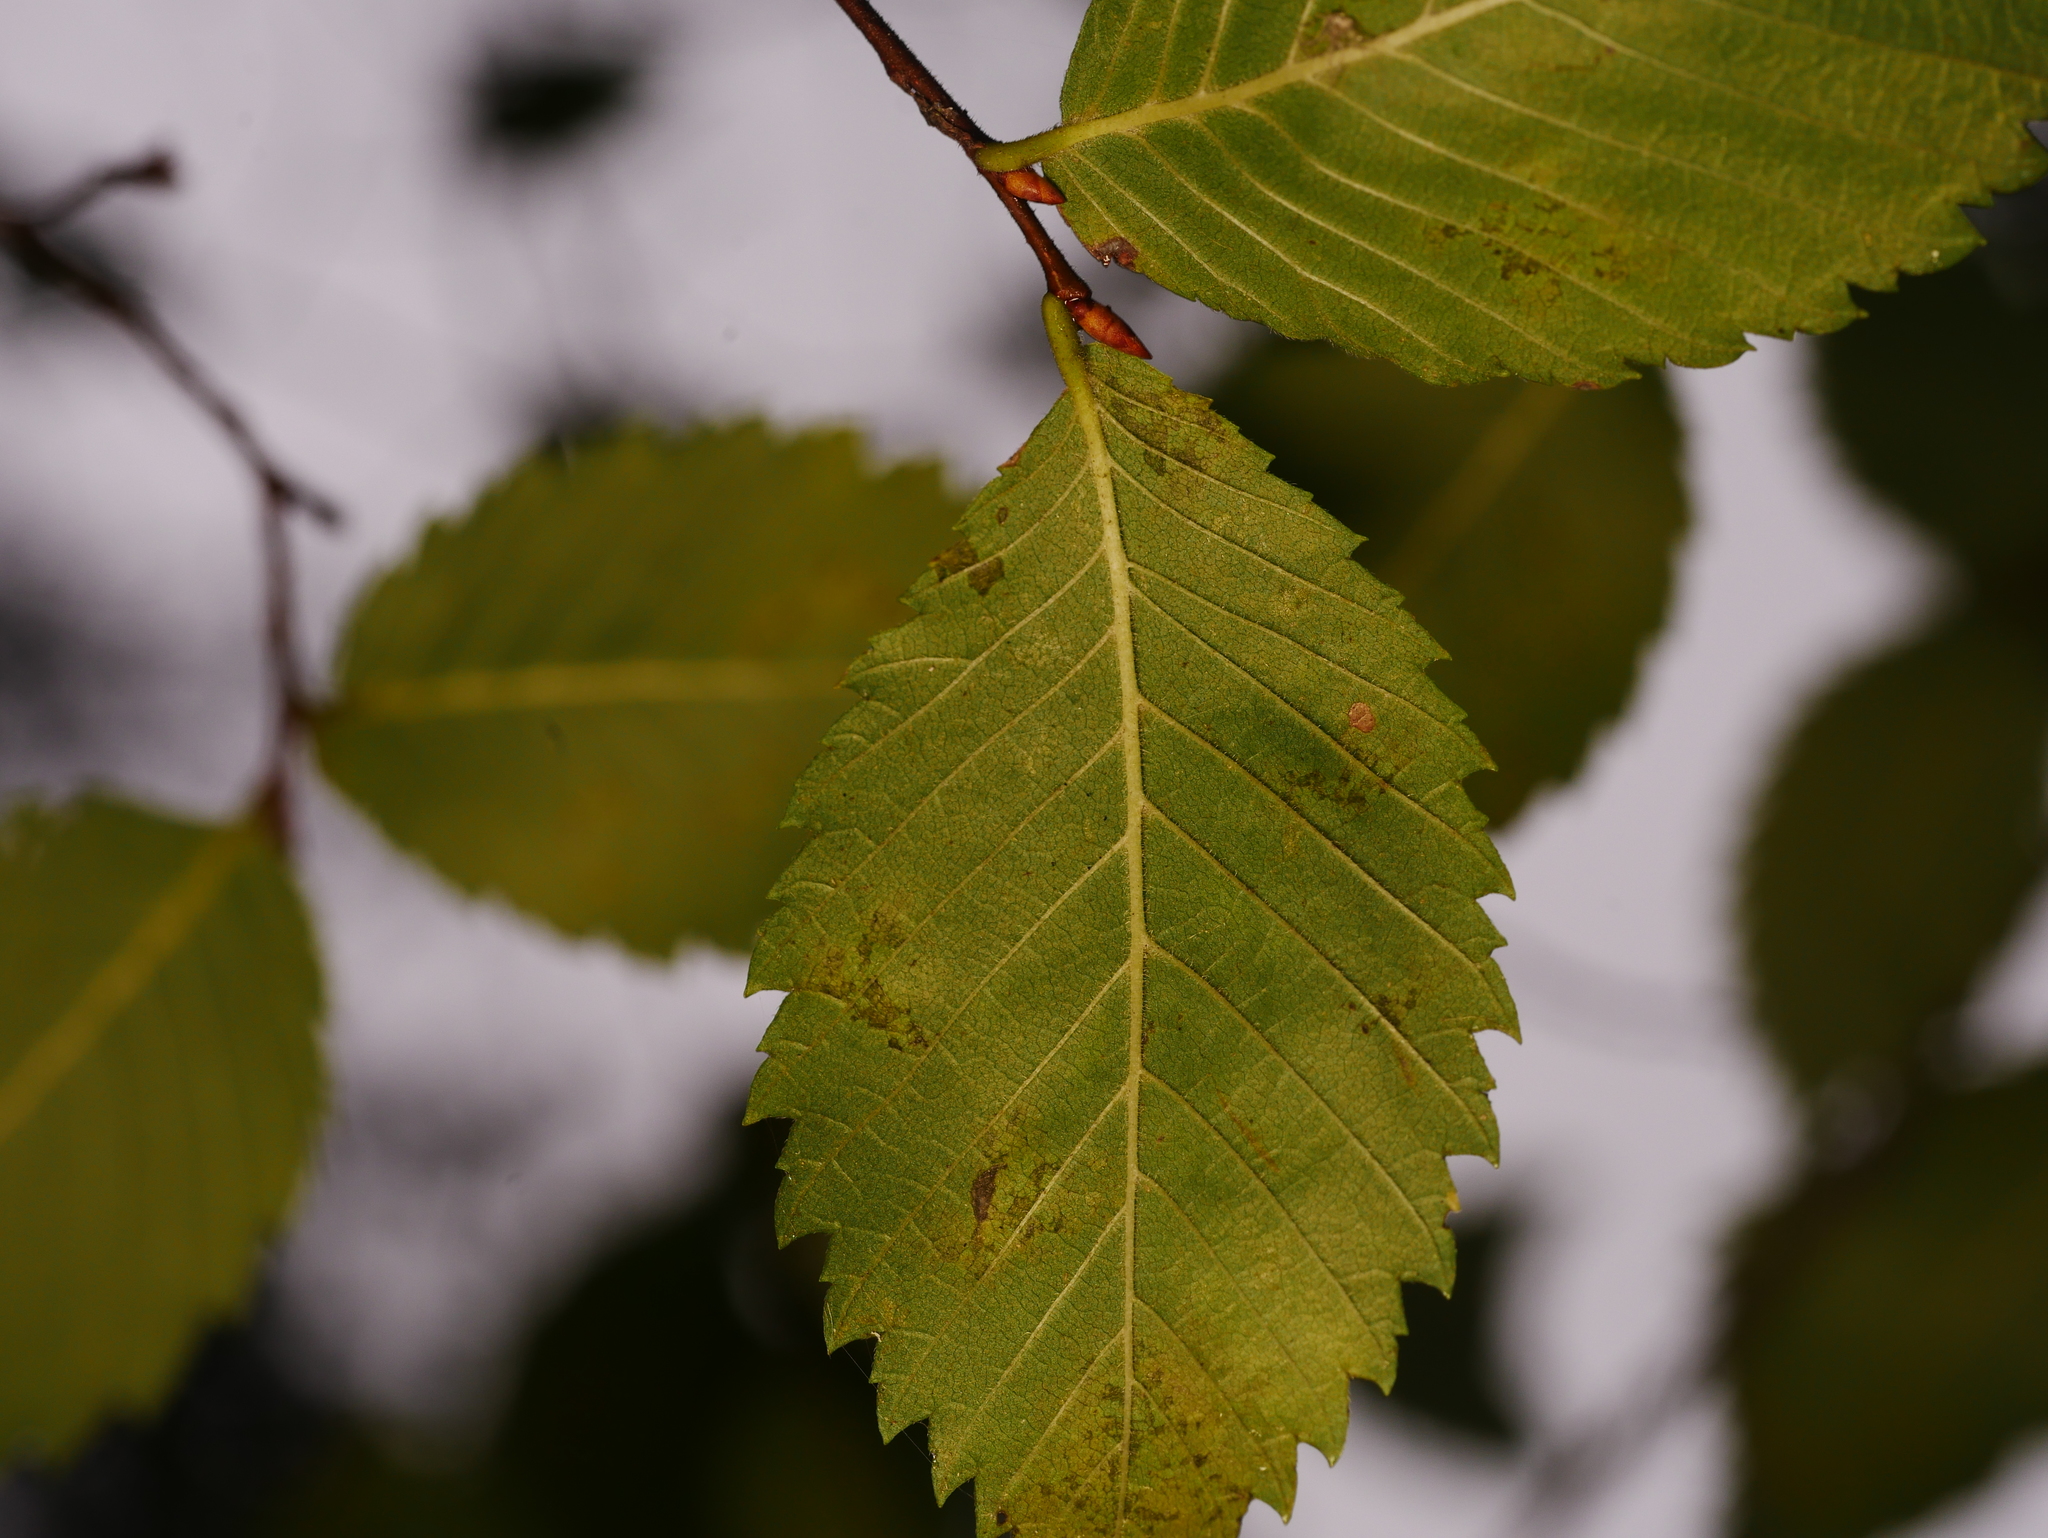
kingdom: Plantae
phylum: Tracheophyta
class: Magnoliopsida
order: Rosales
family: Ulmaceae
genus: Ulmus
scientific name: Ulmus minor
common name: Small-leaved elm
